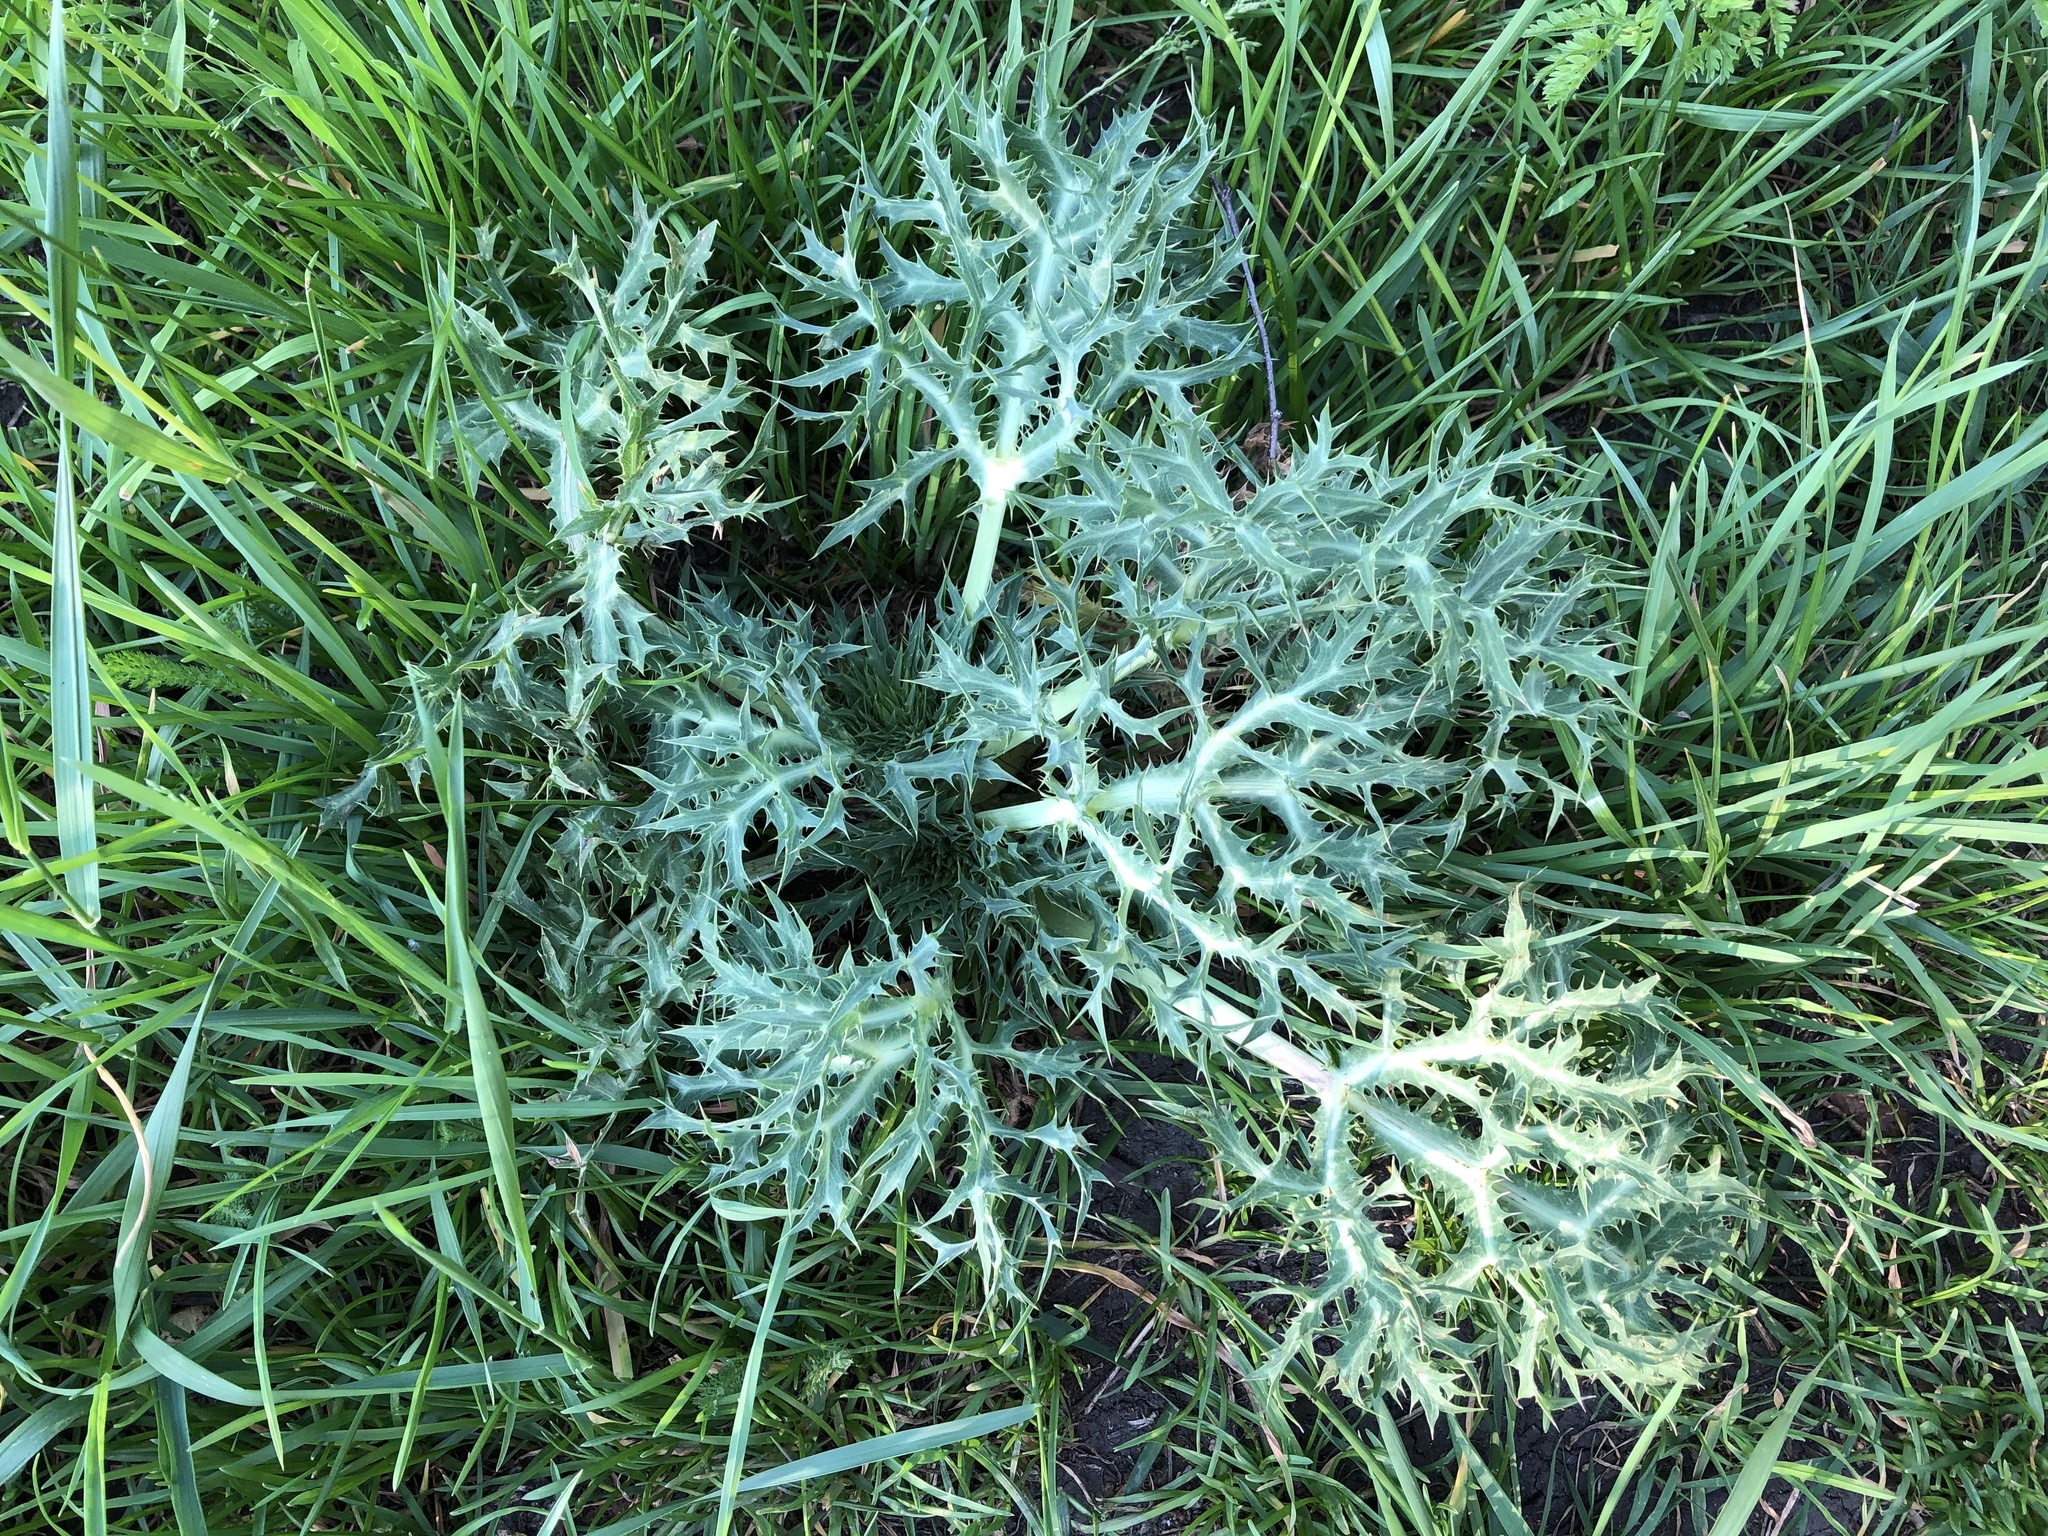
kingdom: Plantae
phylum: Tracheophyta
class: Magnoliopsida
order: Apiales
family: Apiaceae
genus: Eryngium
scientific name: Eryngium campestre
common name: Field eryngo
